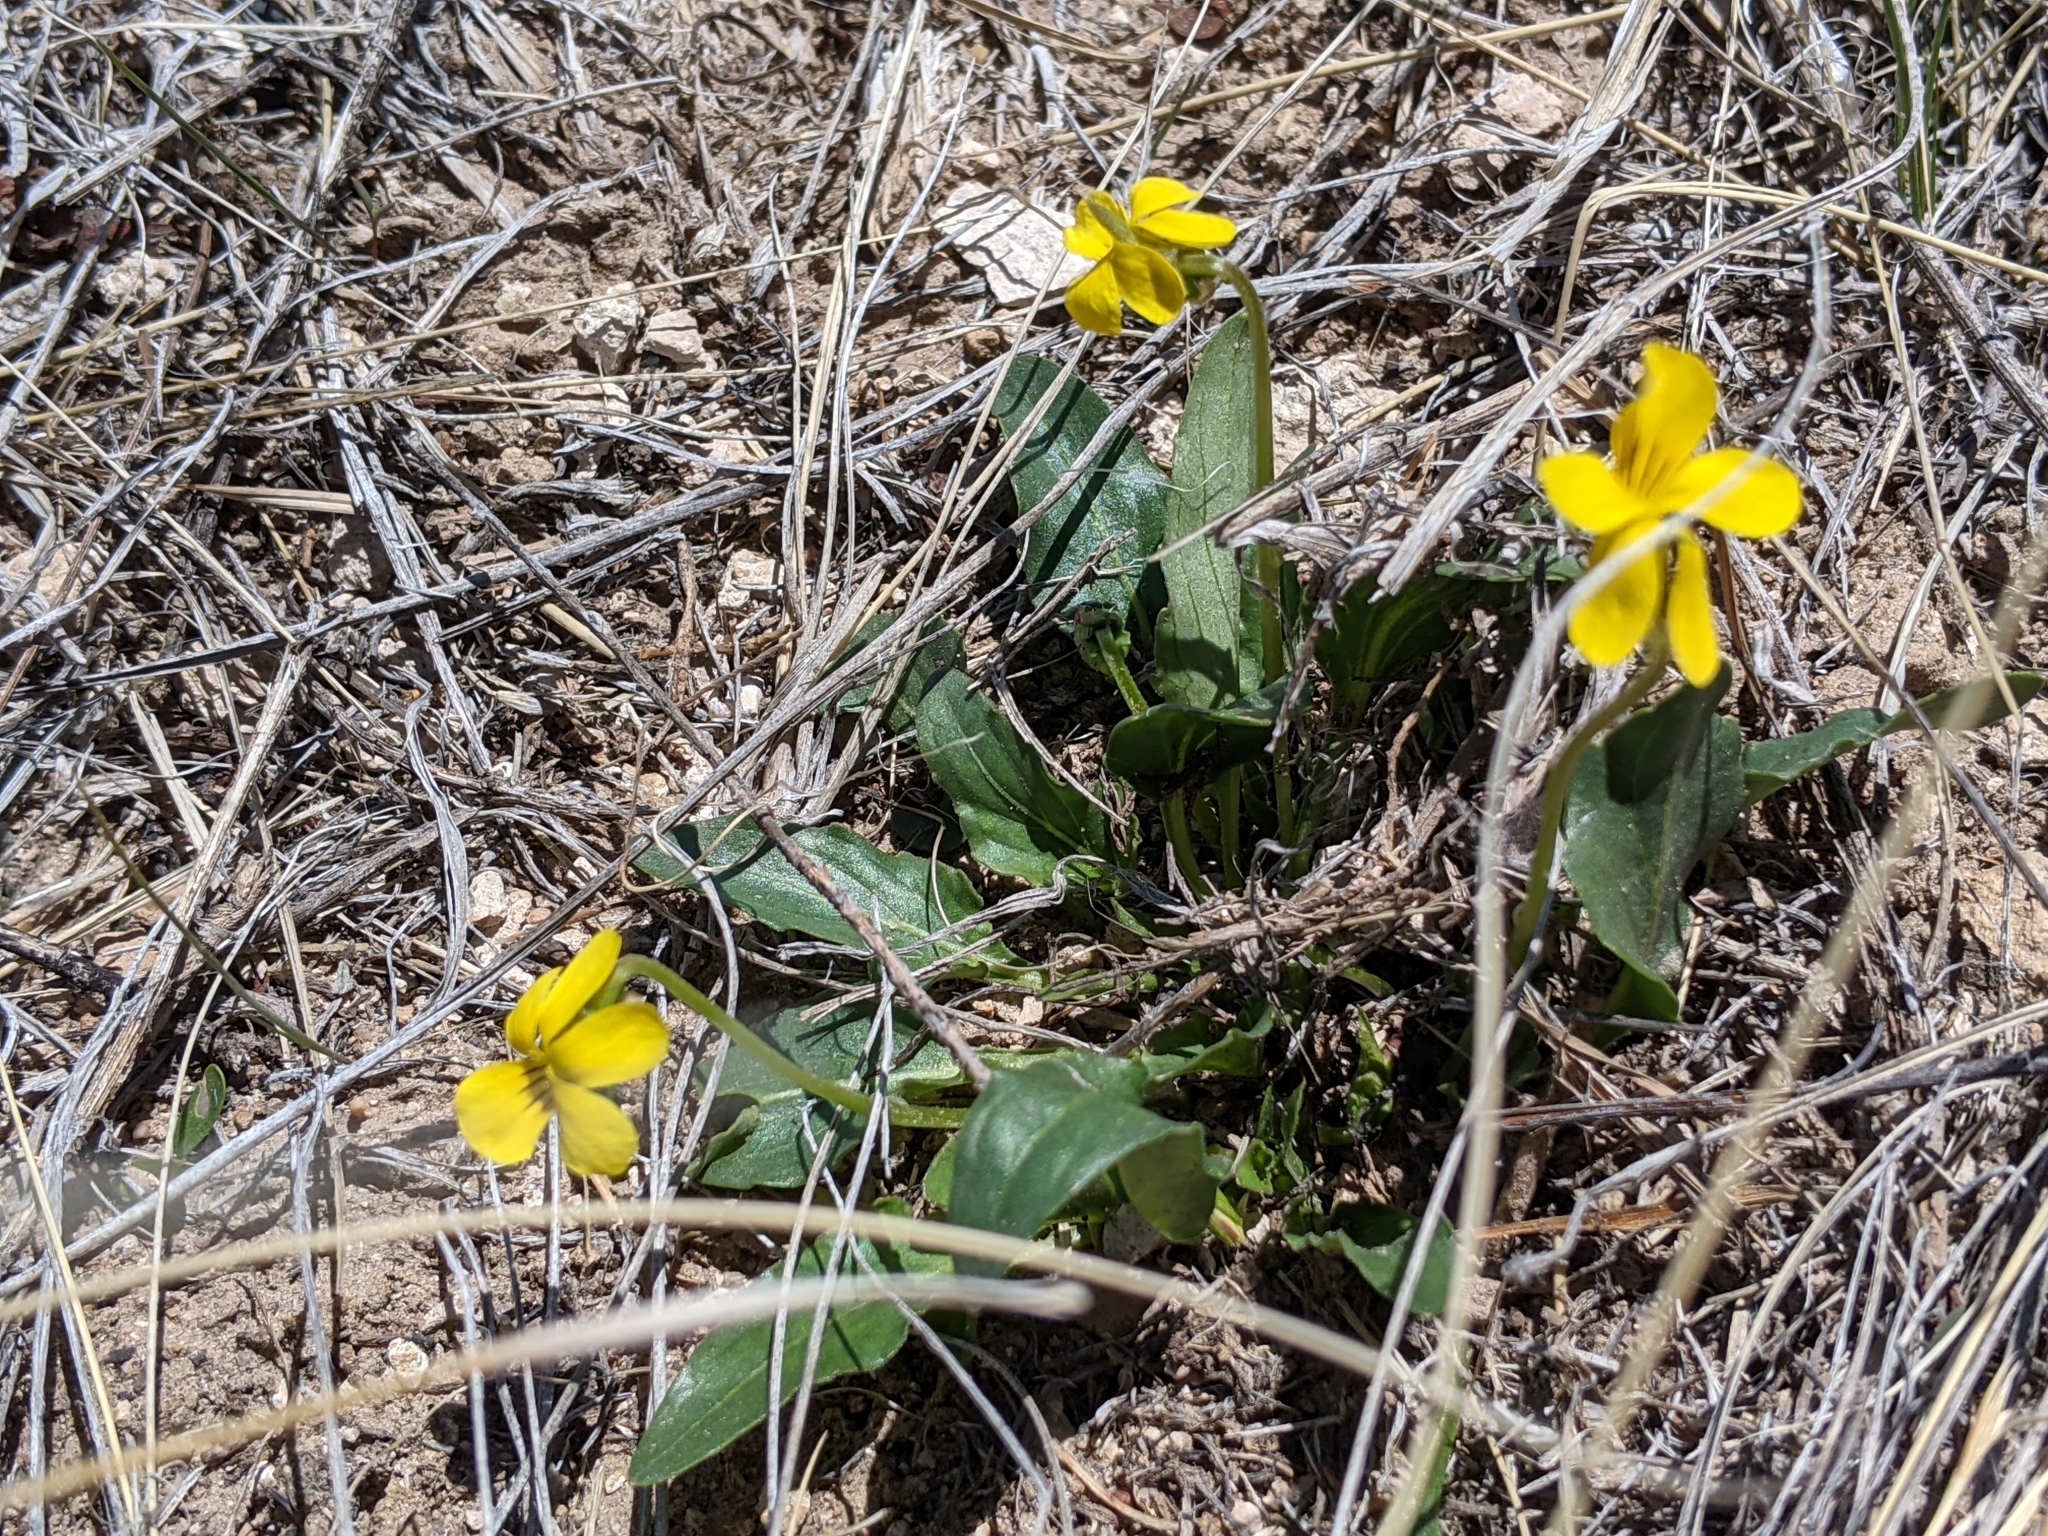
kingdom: Plantae
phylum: Tracheophyta
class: Magnoliopsida
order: Malpighiales
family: Violaceae
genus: Viola
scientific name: Viola nuttallii
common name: Yellow prairie violet
